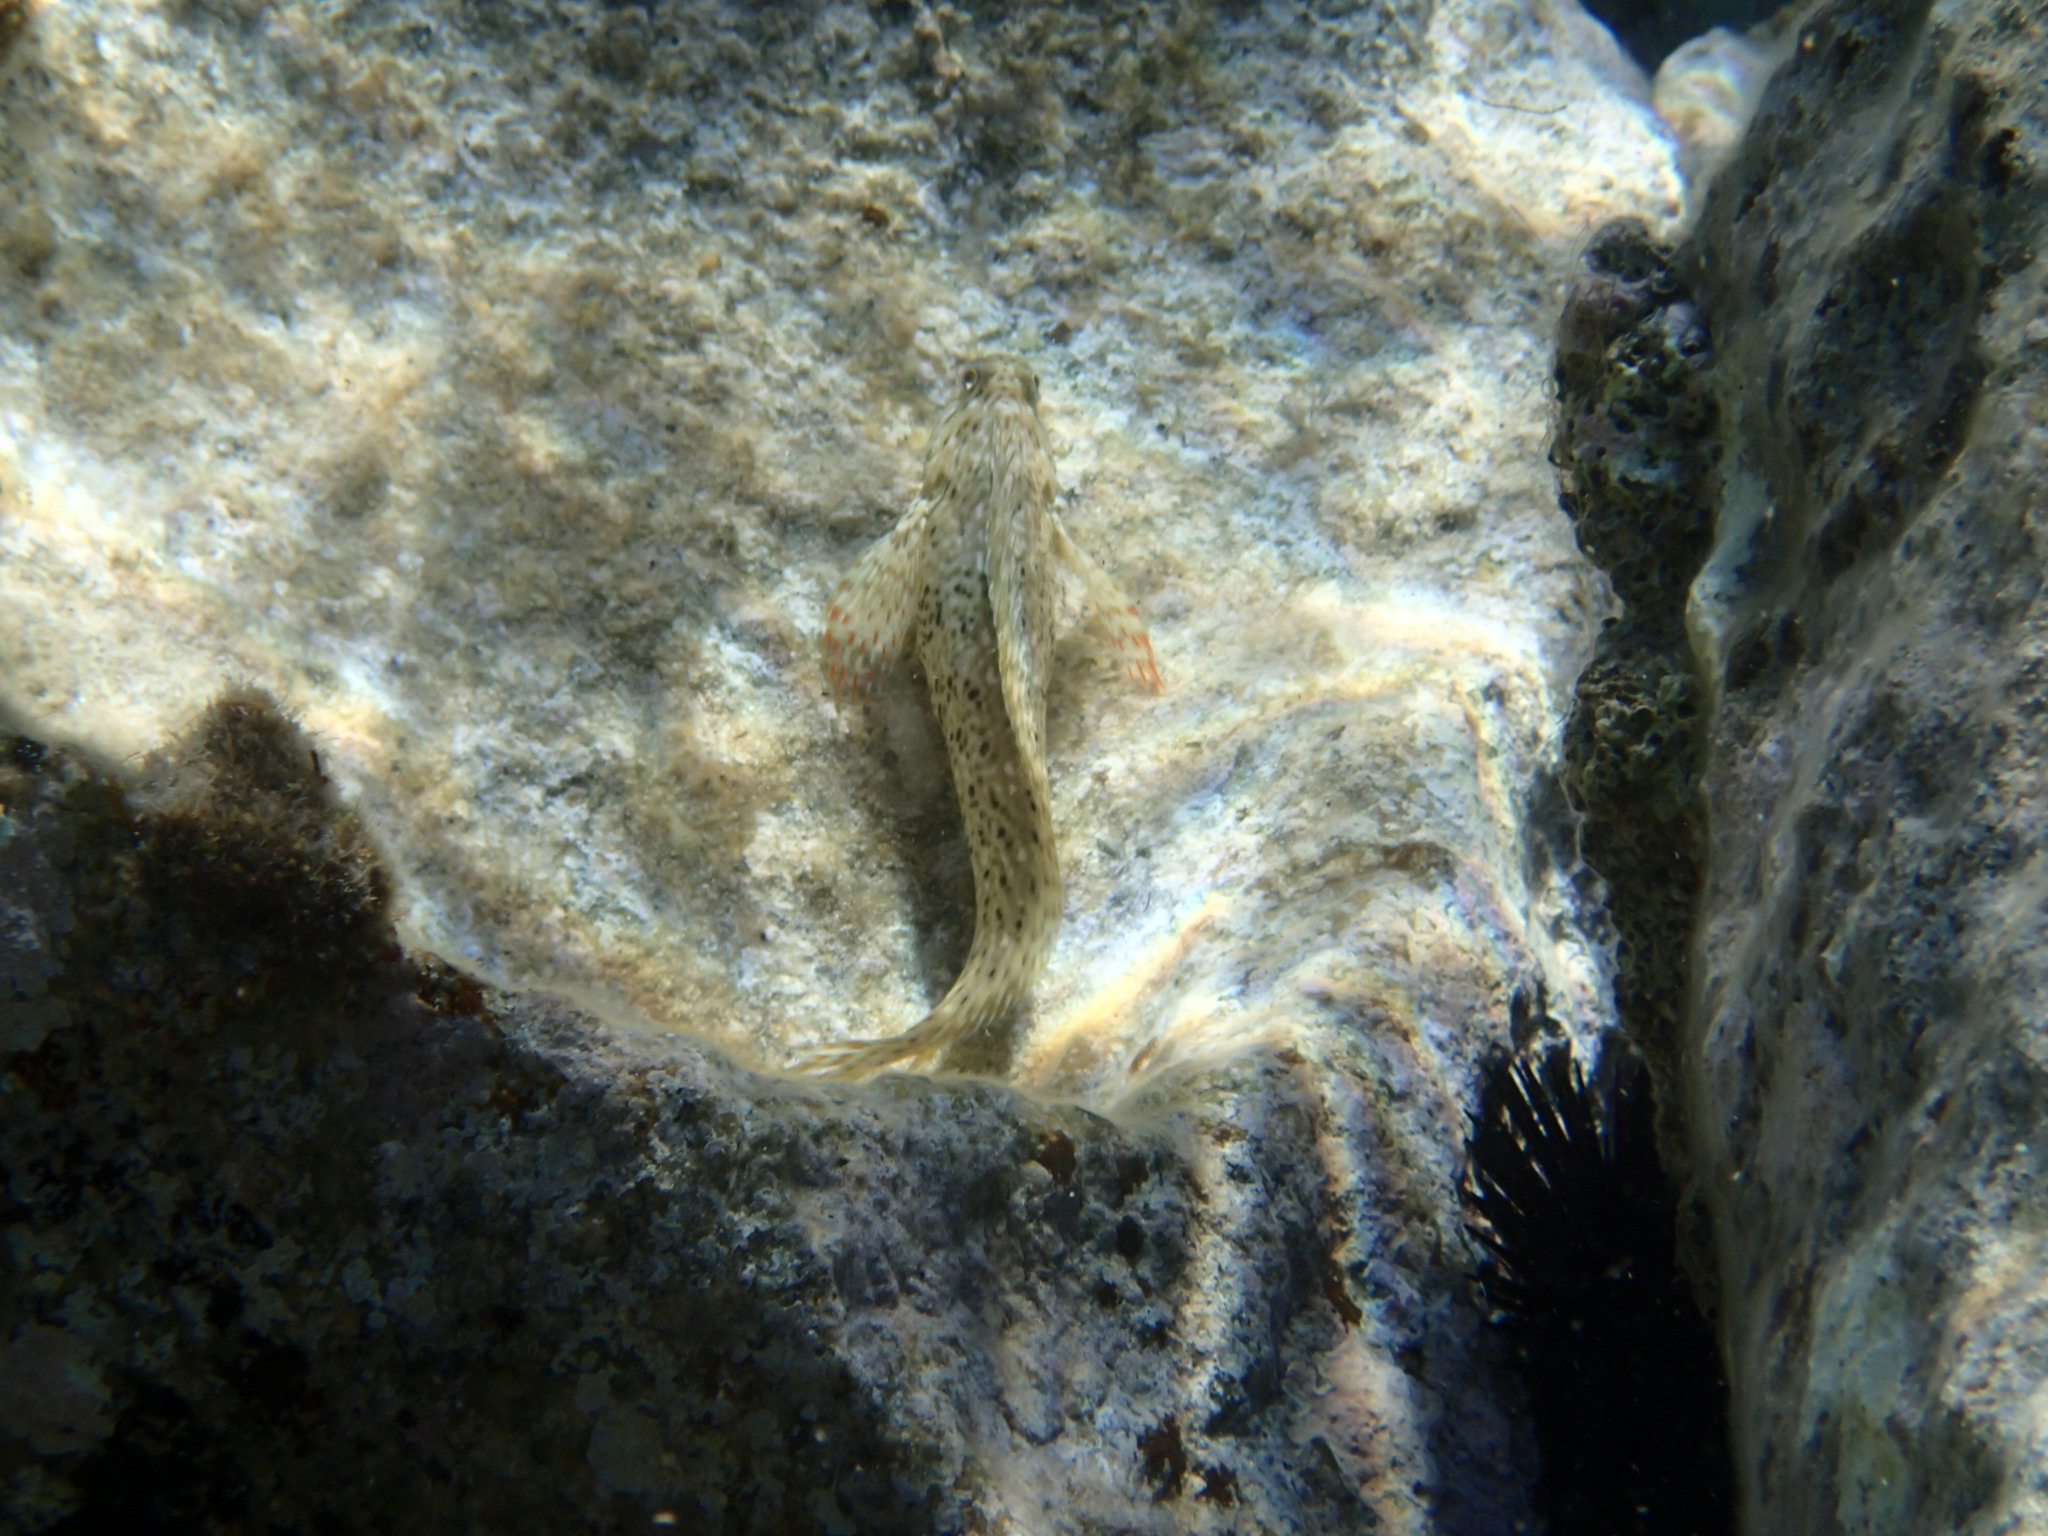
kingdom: Animalia
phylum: Chordata
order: Perciformes
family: Blenniidae
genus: Parablennius
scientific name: Parablennius sanguinolentus
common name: Black sea blenny
